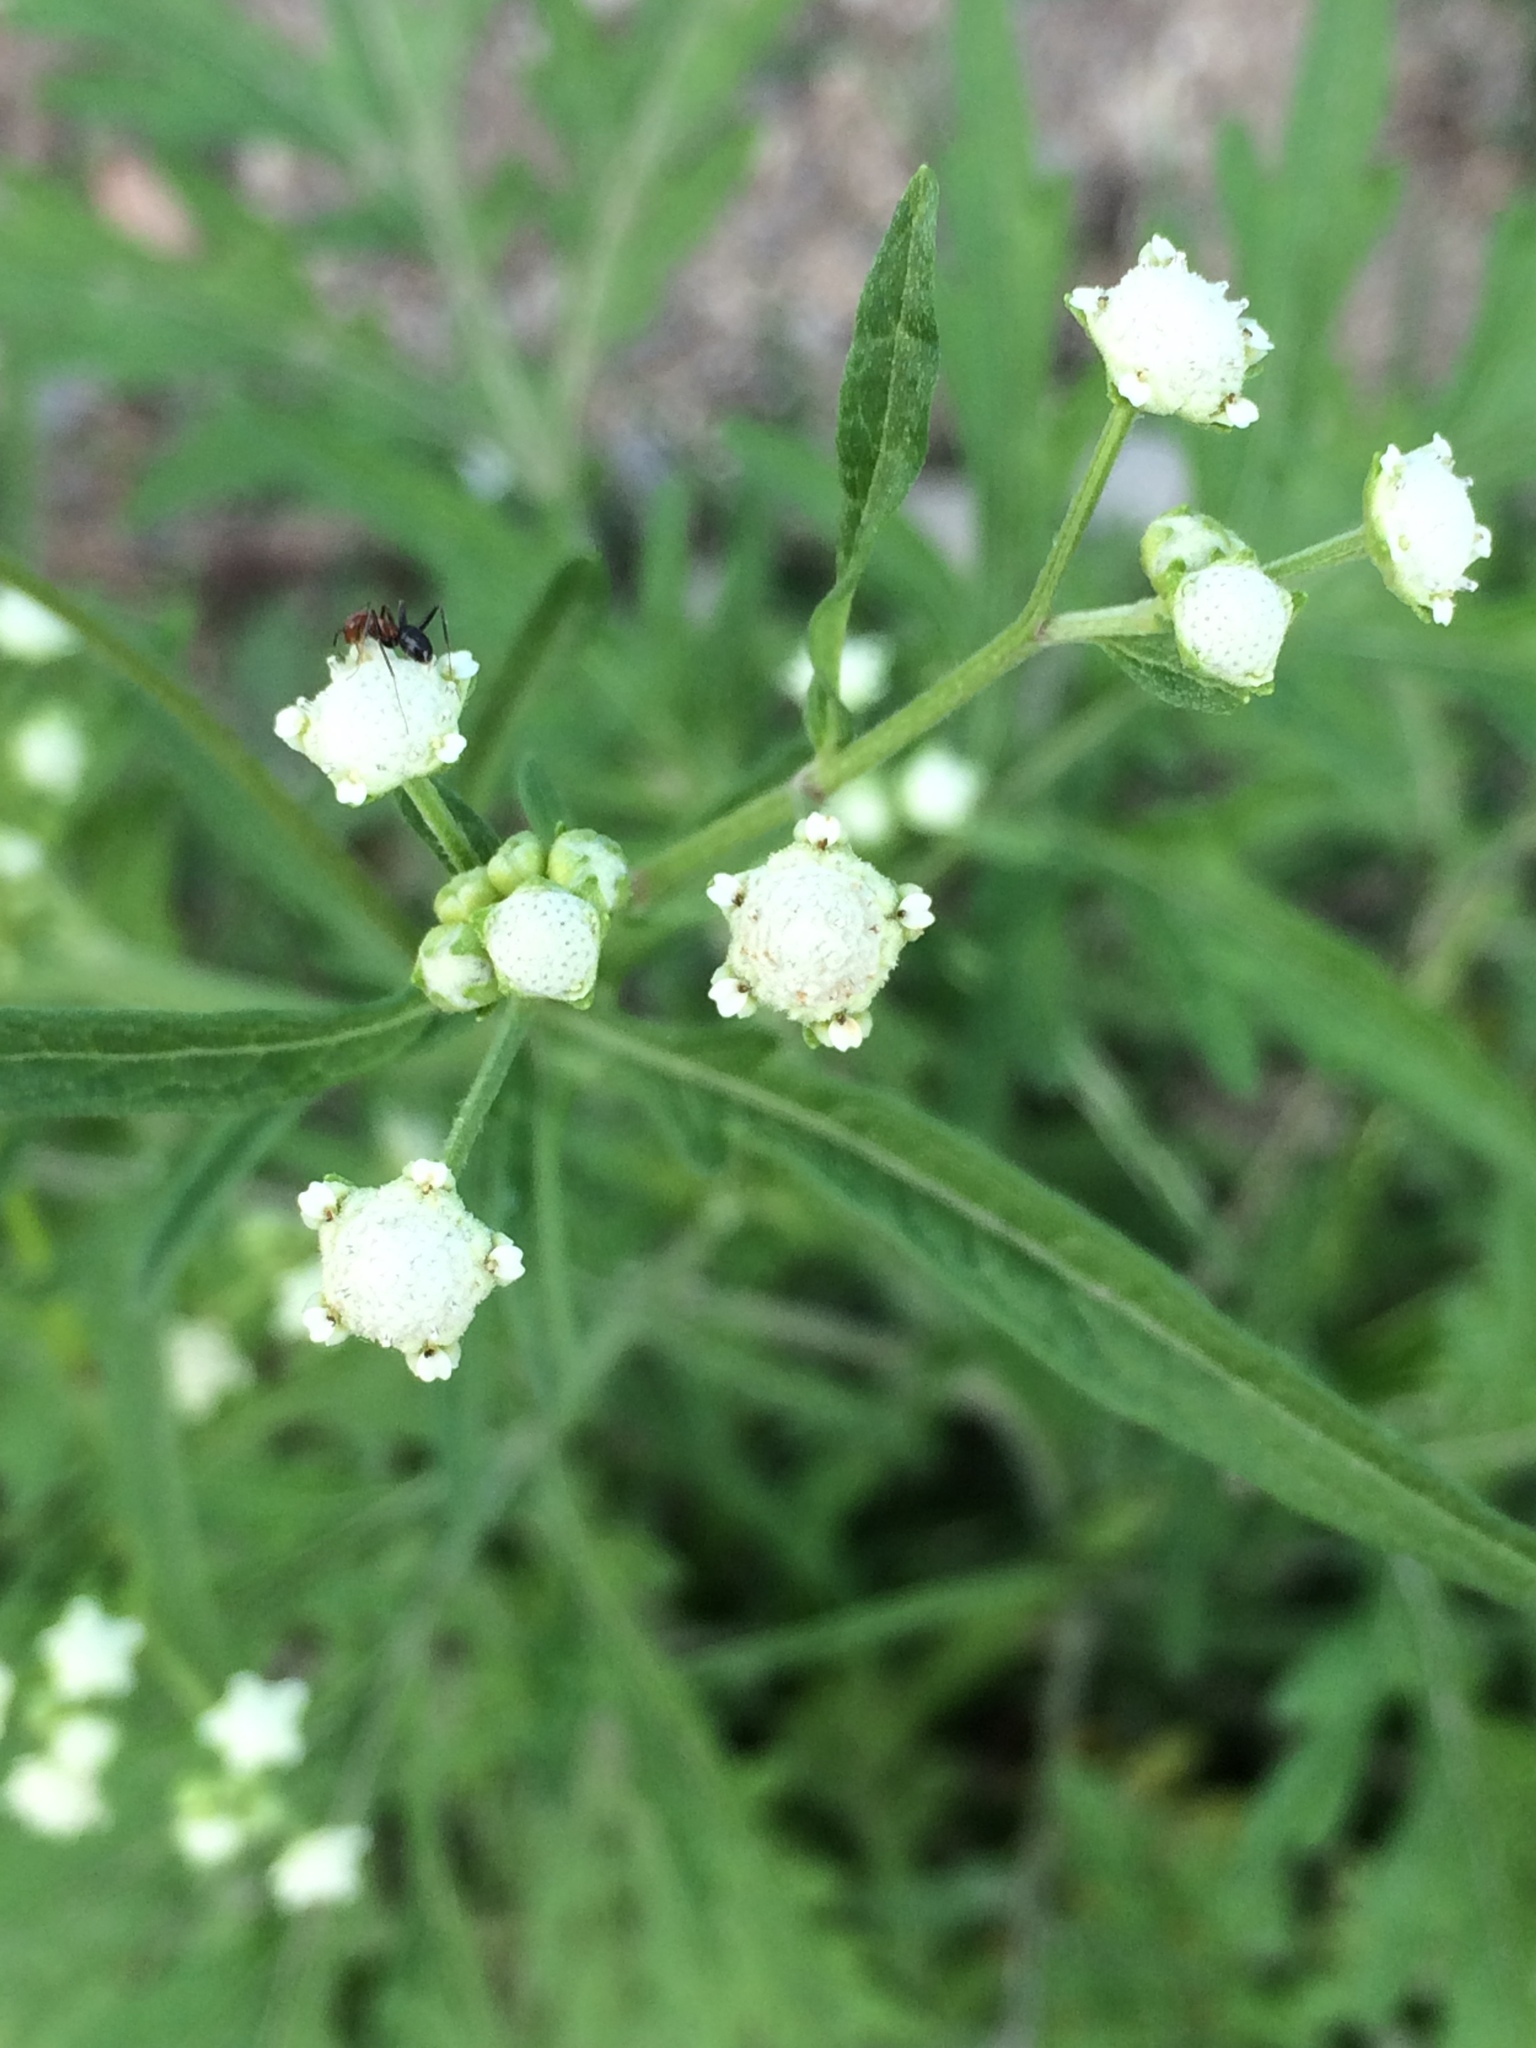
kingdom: Plantae
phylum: Tracheophyta
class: Magnoliopsida
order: Asterales
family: Asteraceae
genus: Parthenium
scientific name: Parthenium hysterophorus
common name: Santa maria feverfew
